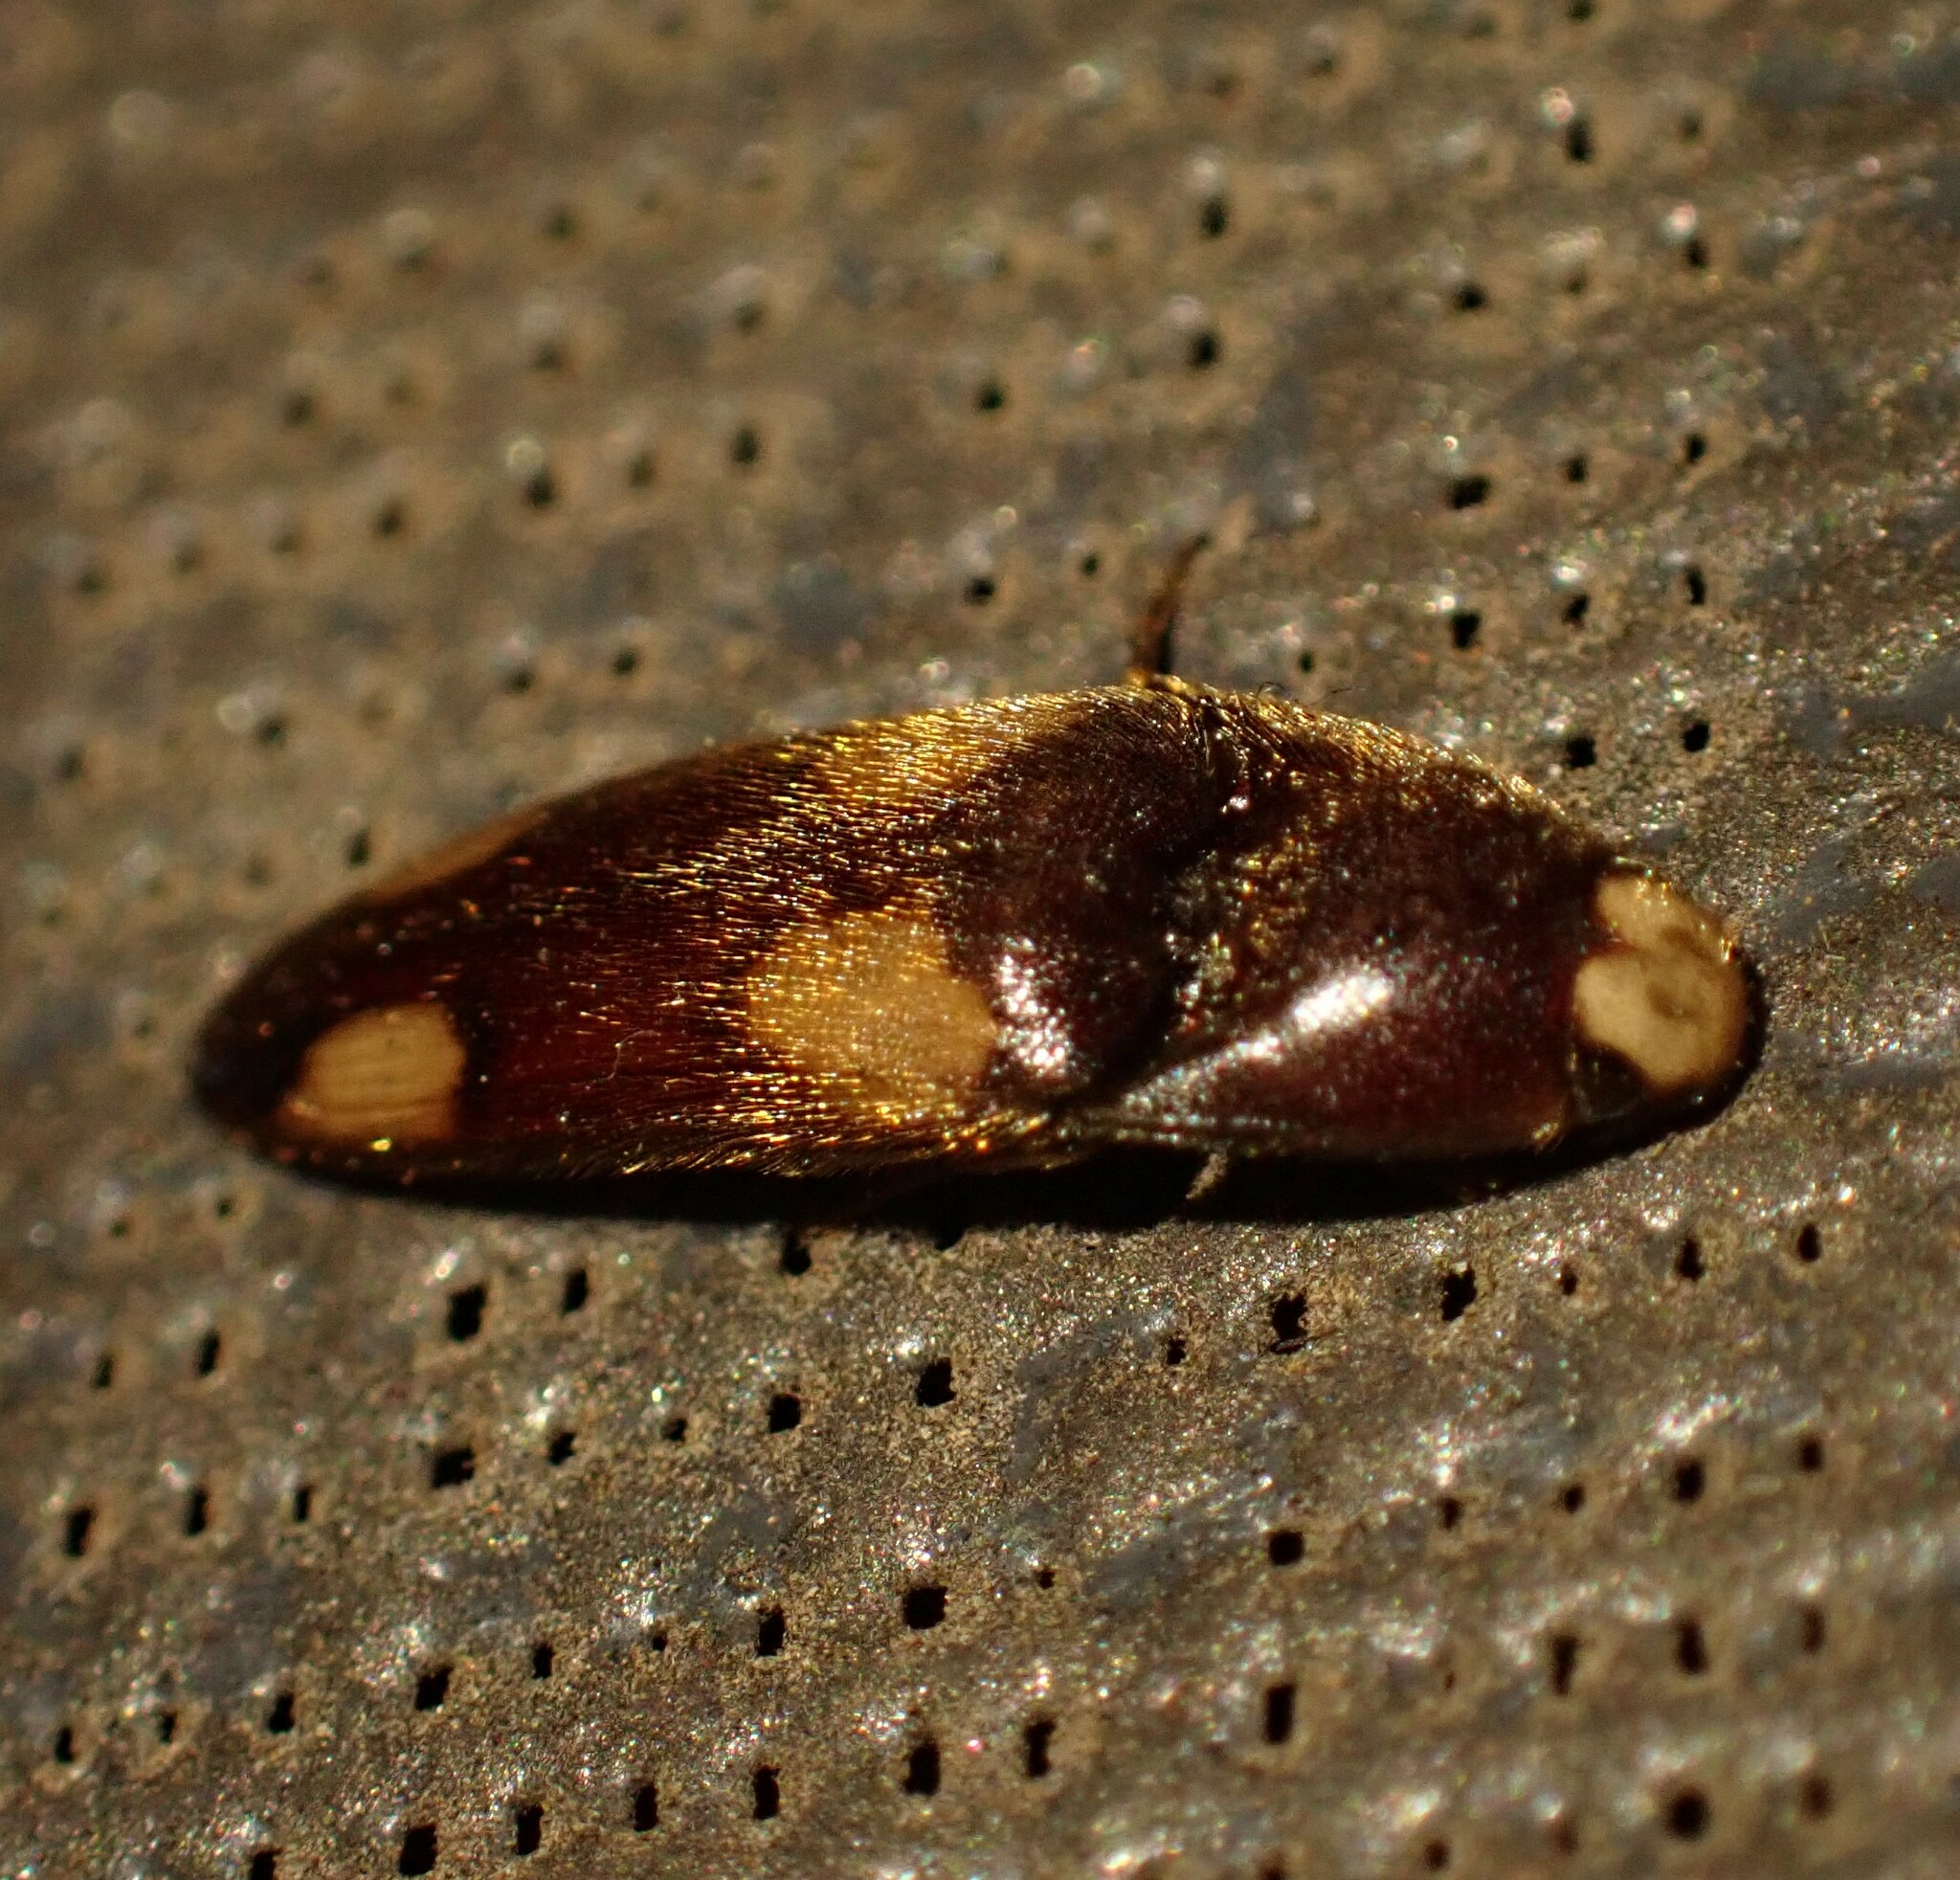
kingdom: Animalia
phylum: Arthropoda
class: Insecta
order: Coleoptera
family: Elateridae
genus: Physorhinus
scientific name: Physorhinus erythrocephalus
